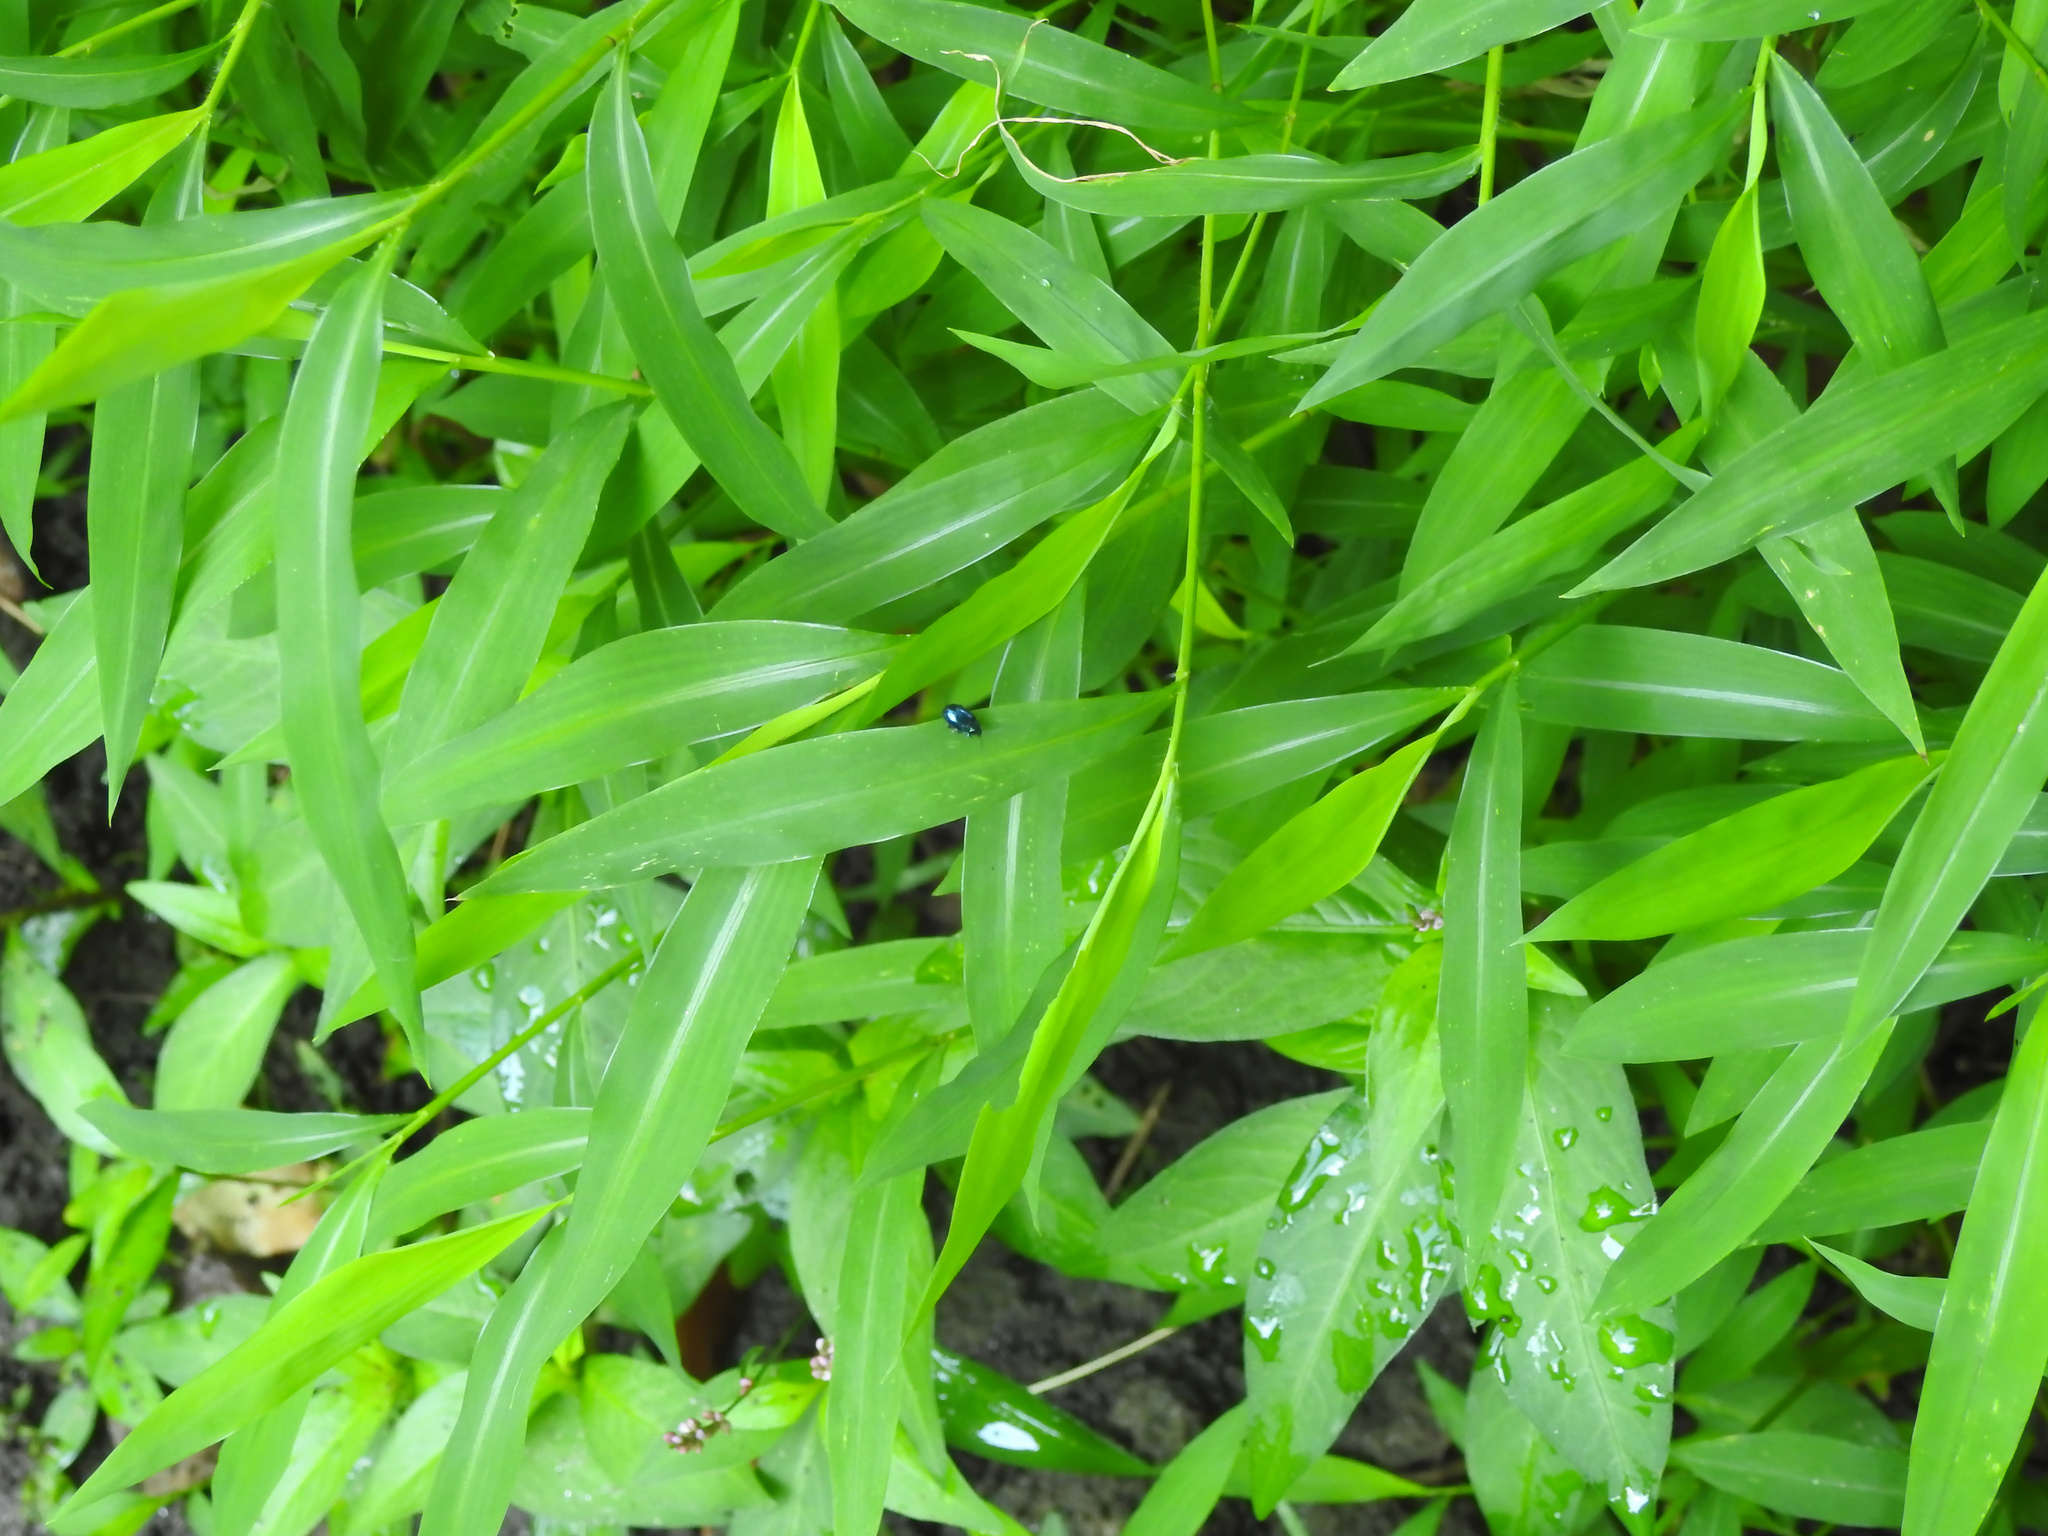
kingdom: Plantae
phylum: Tracheophyta
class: Liliopsida
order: Poales
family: Poaceae
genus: Microstegium
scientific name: Microstegium vimineum
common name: Japanese stiltgrass
